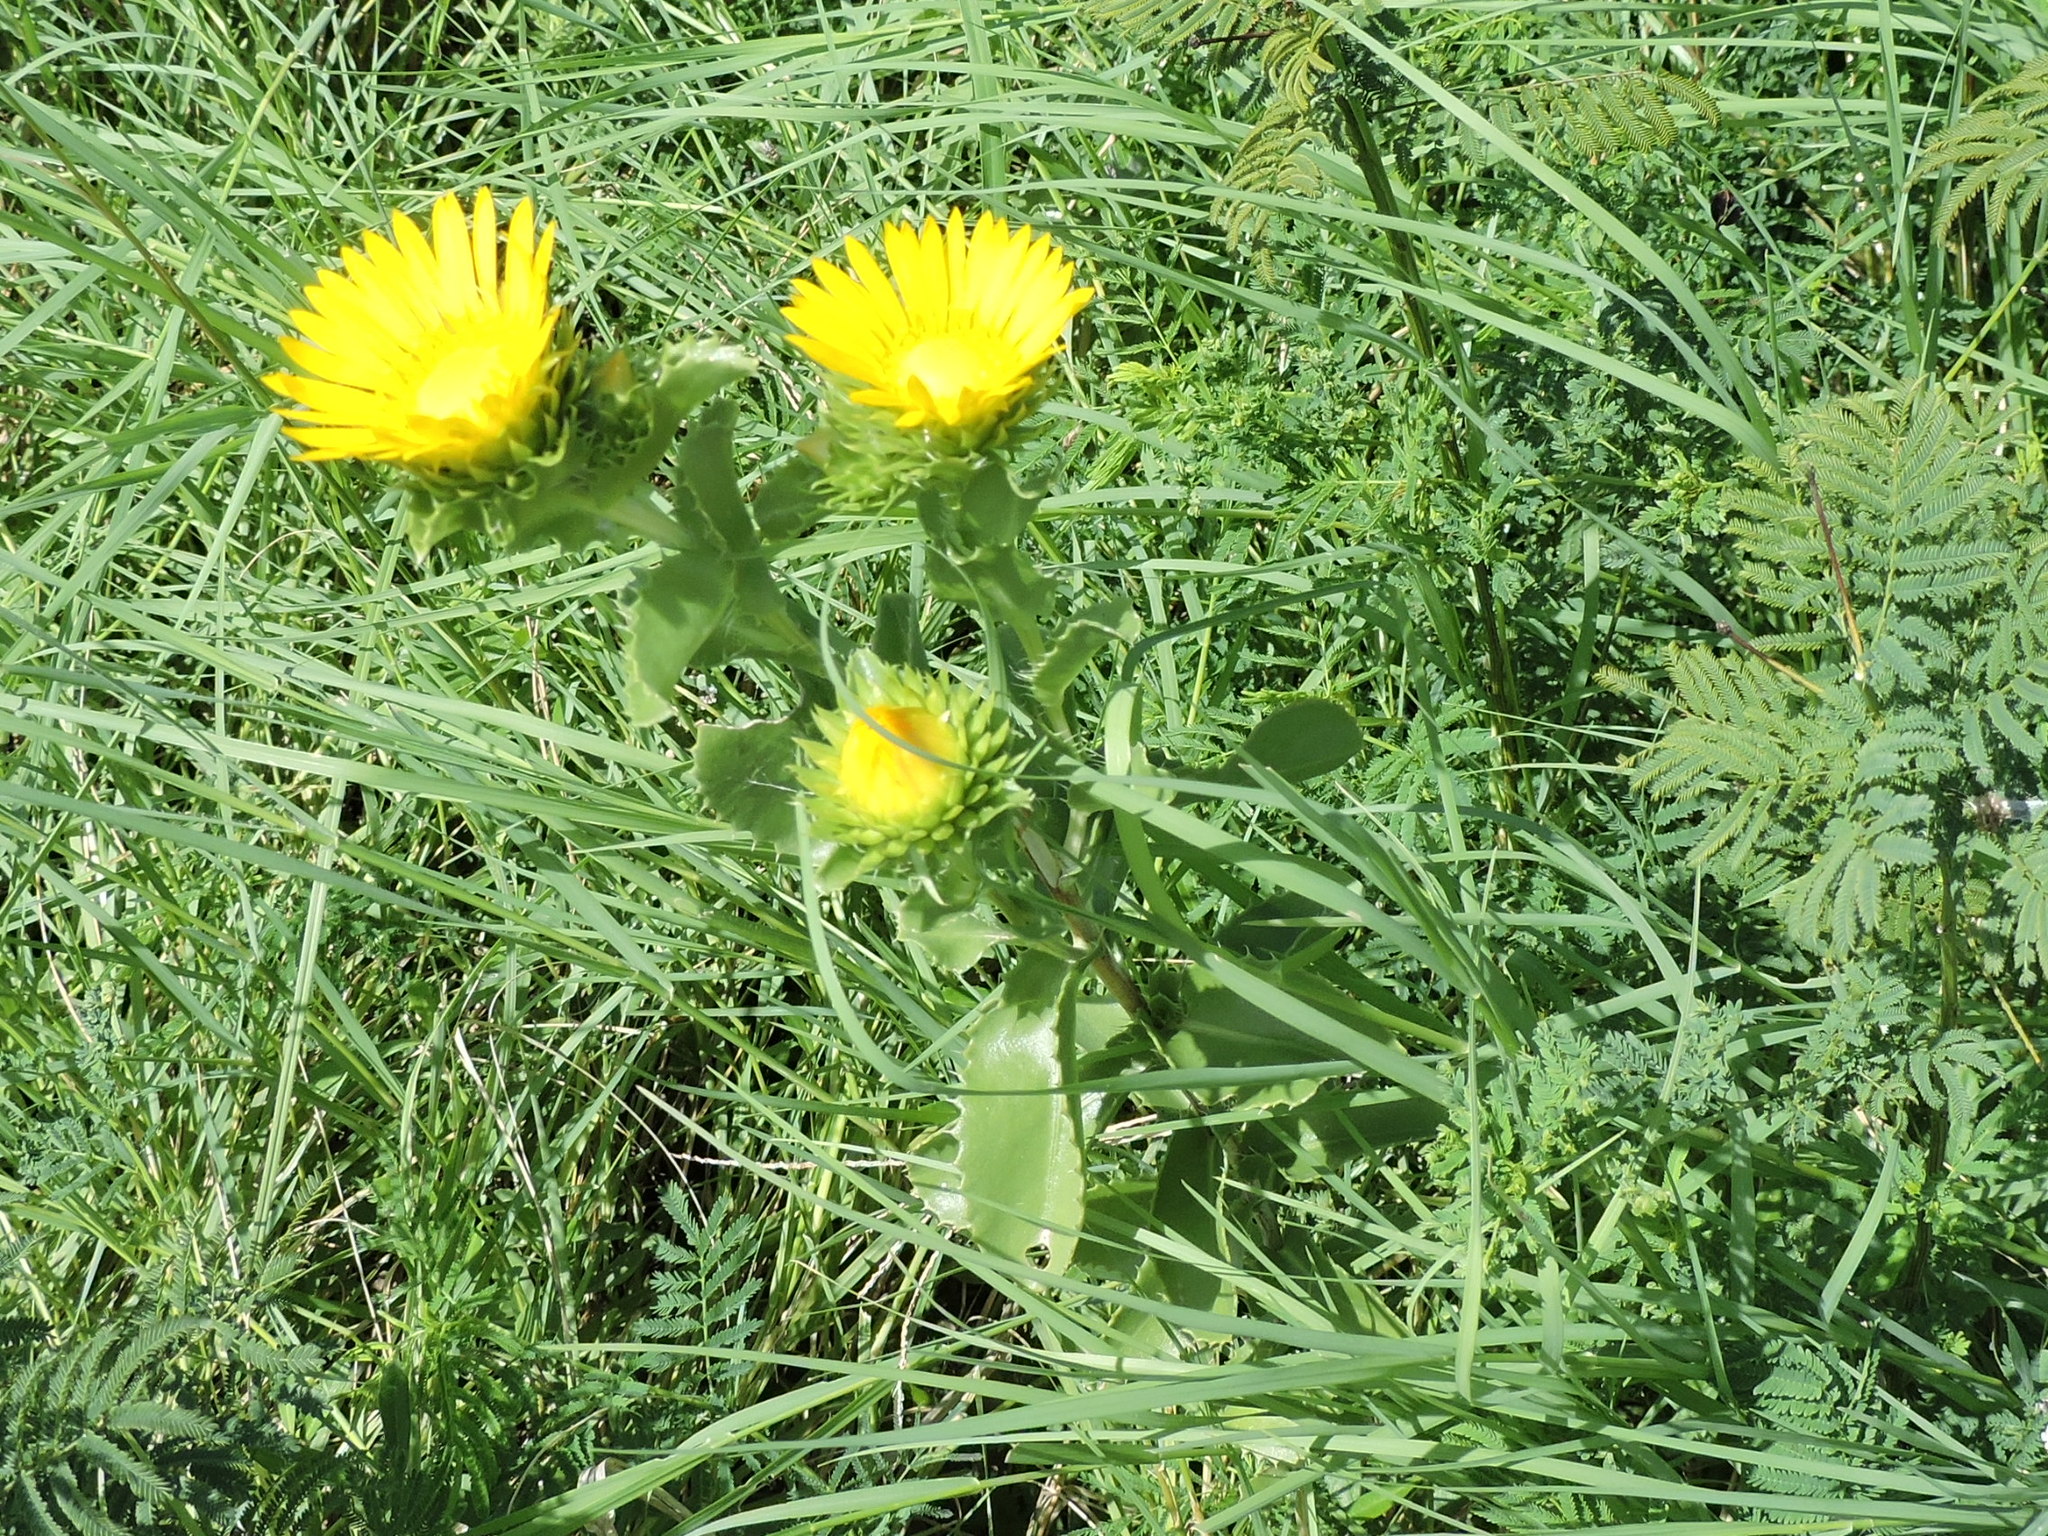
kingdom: Plantae
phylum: Tracheophyta
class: Magnoliopsida
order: Asterales
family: Asteraceae
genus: Grindelia
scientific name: Grindelia ciliata
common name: Goldenweed
